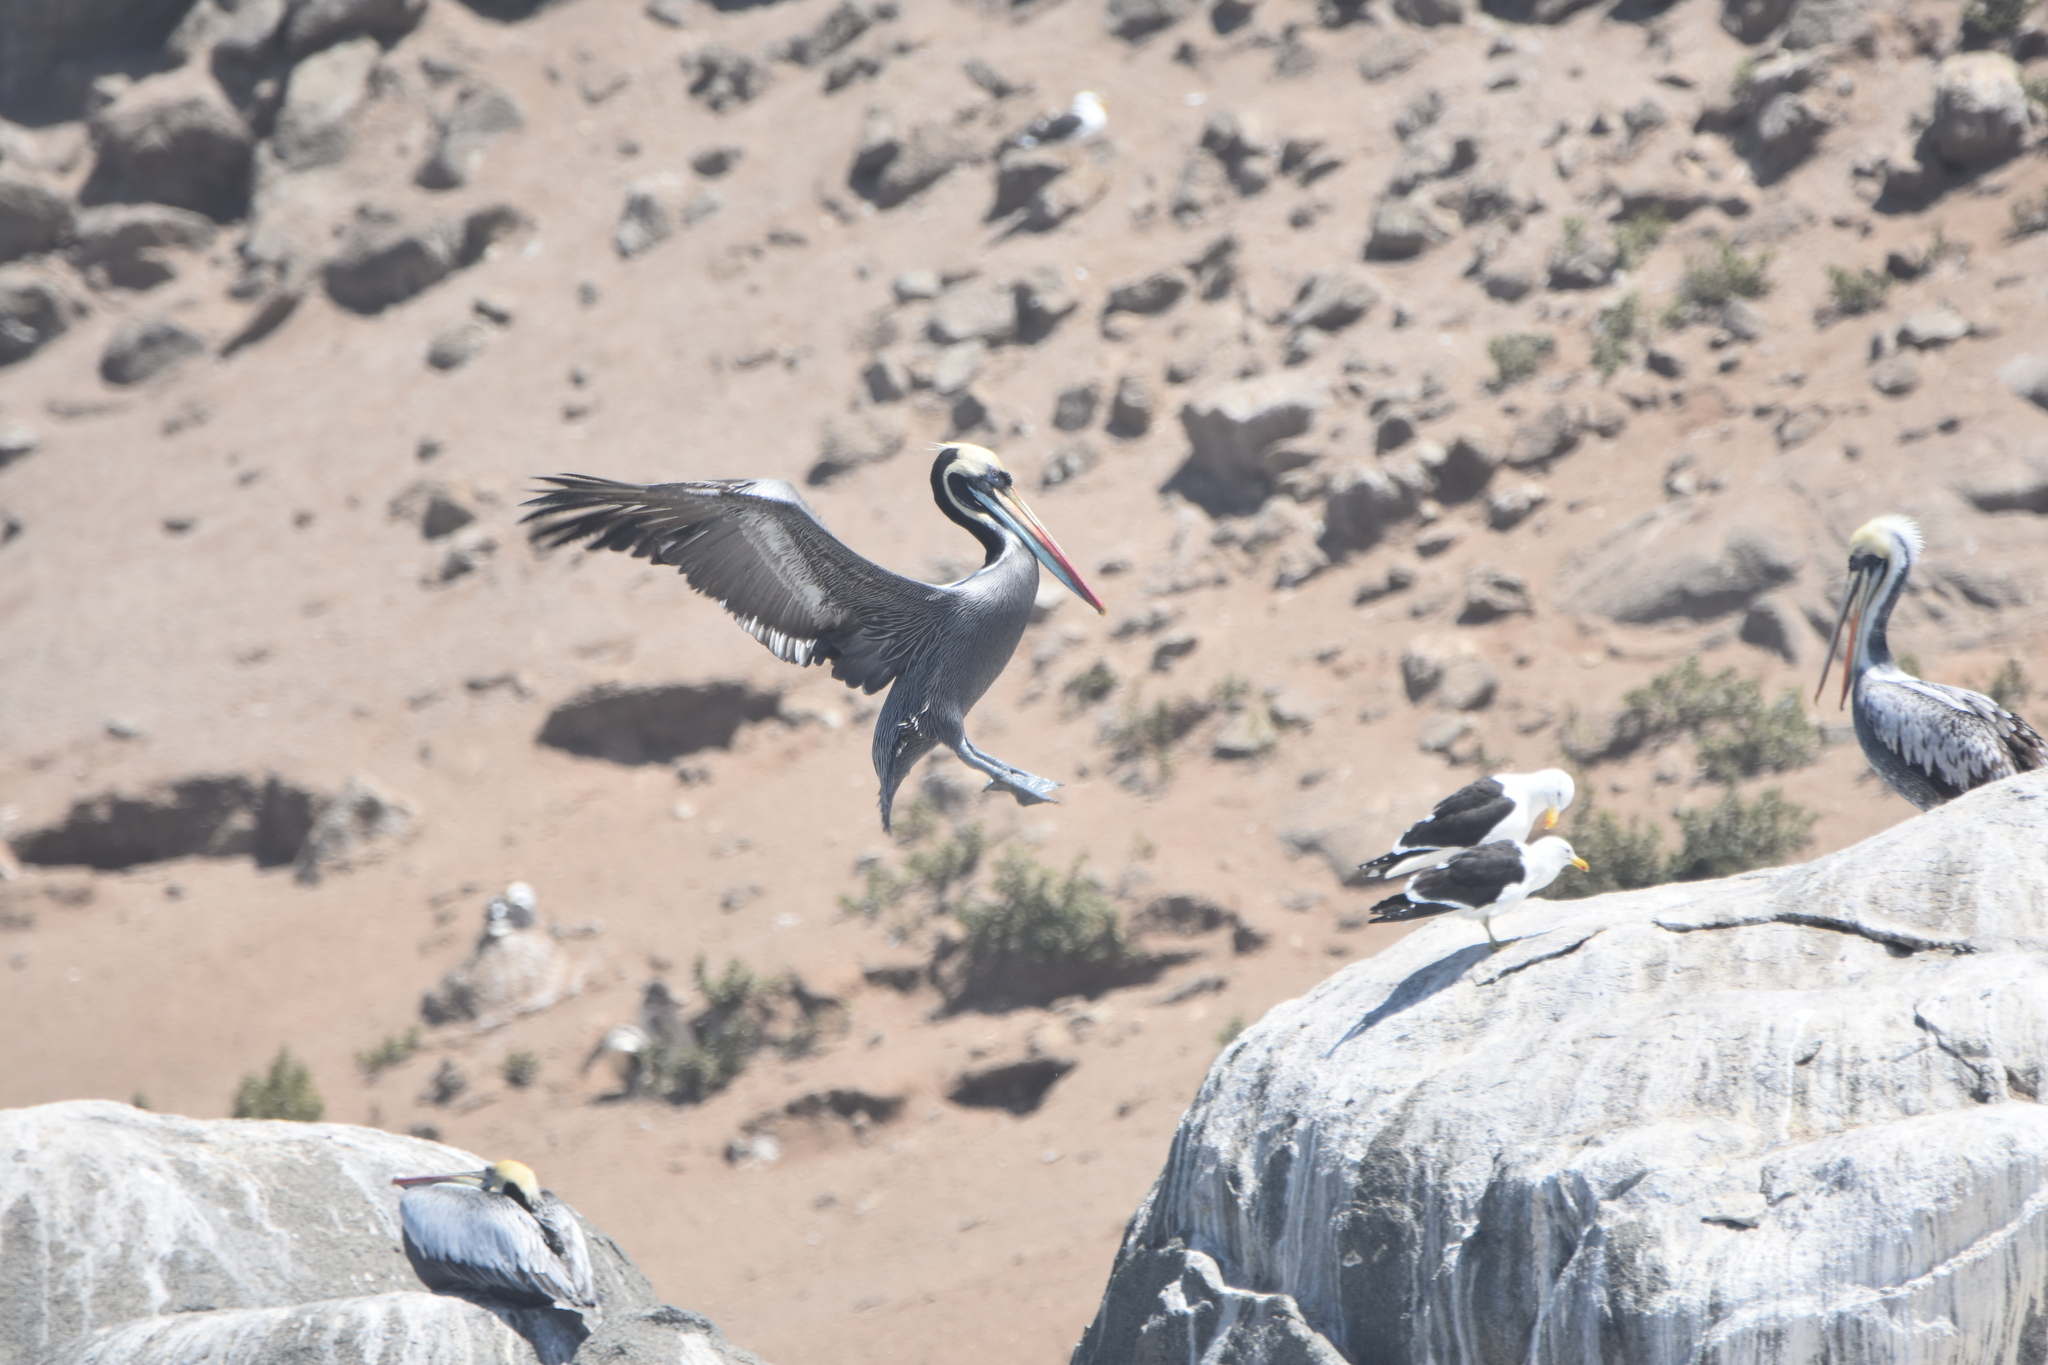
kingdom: Animalia
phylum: Chordata
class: Aves
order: Pelecaniformes
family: Pelecanidae
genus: Pelecanus
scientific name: Pelecanus thagus
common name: Peruvian pelican
